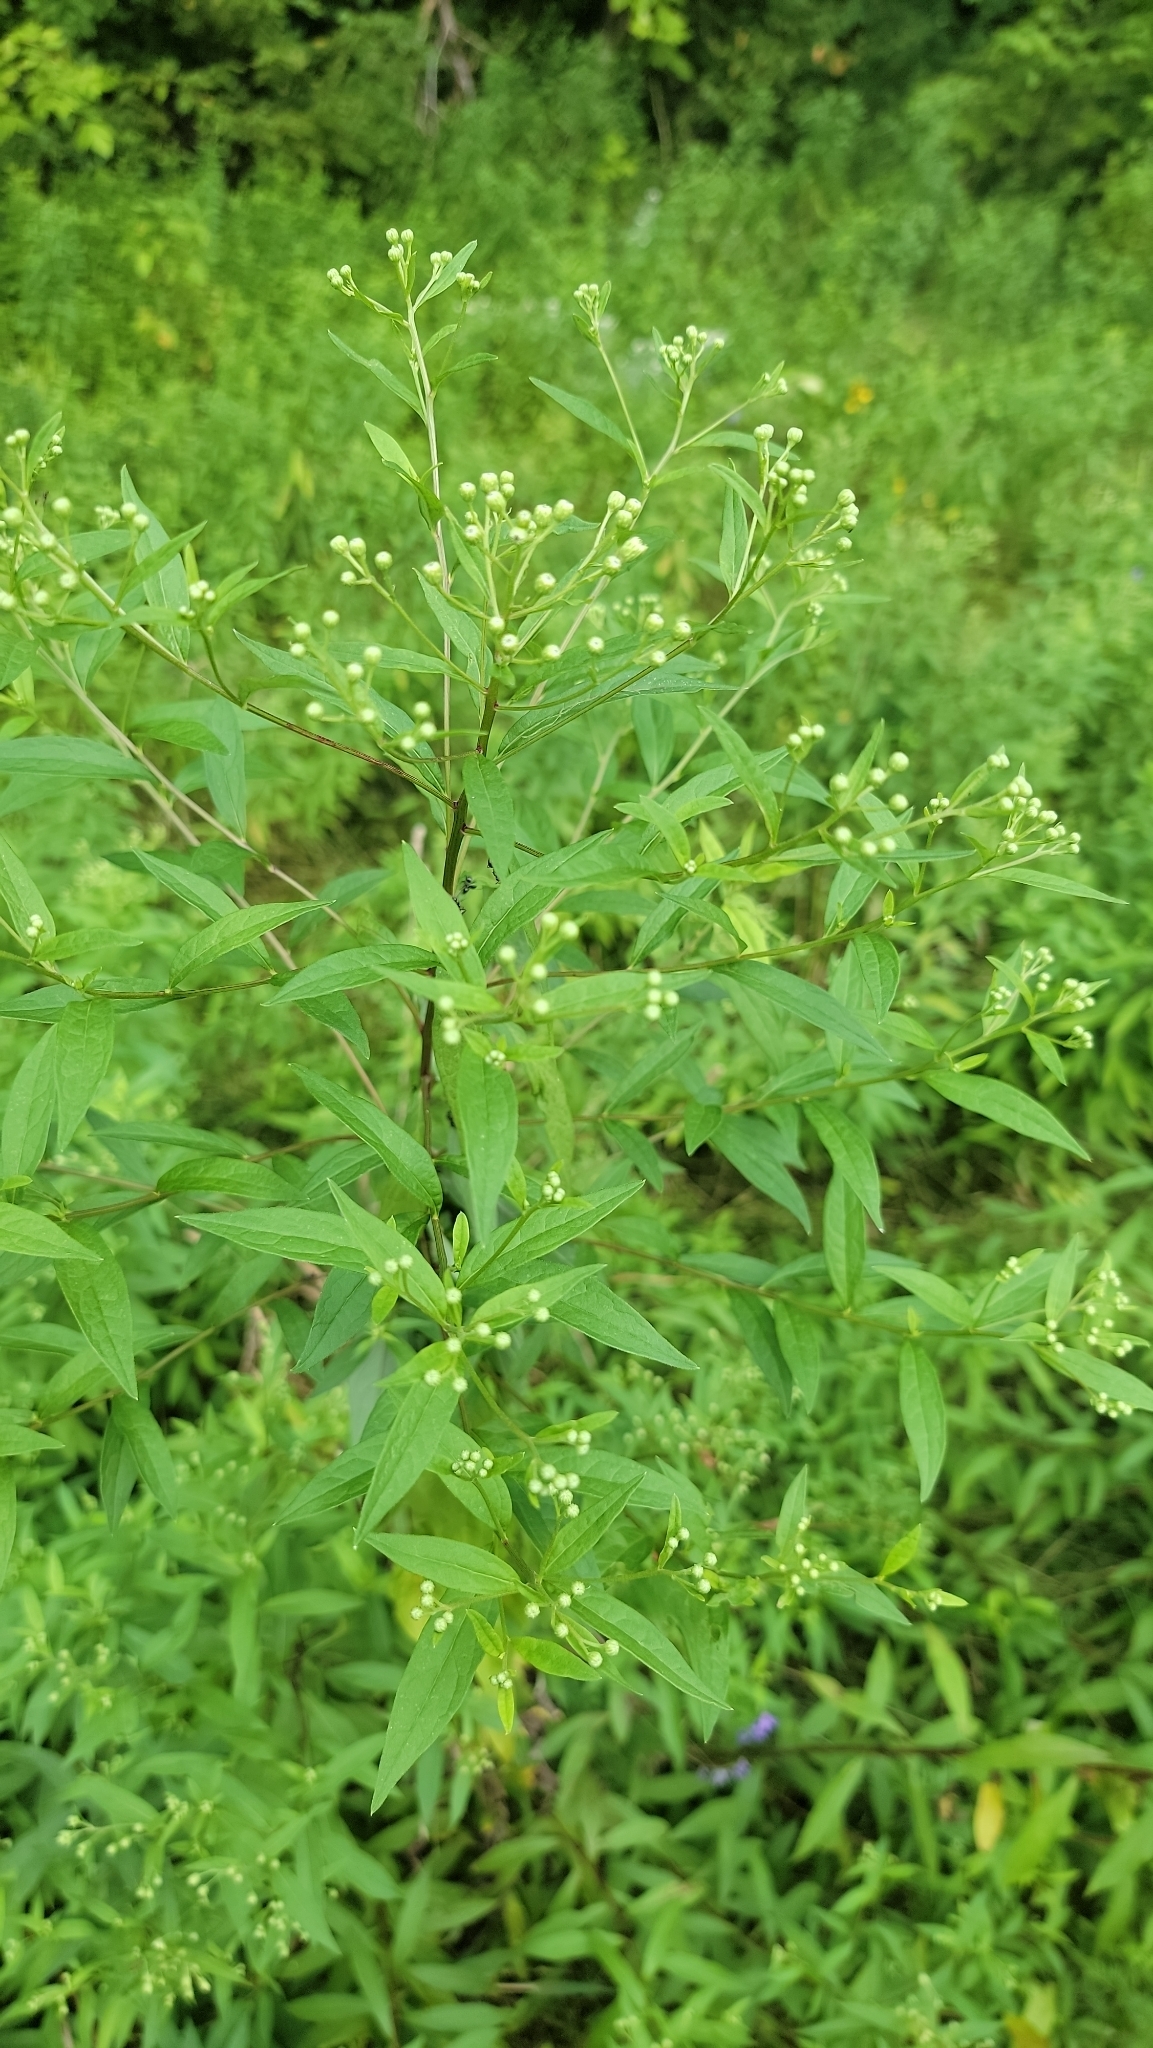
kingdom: Plantae
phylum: Tracheophyta
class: Magnoliopsida
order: Asterales
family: Asteraceae
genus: Doellingeria
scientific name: Doellingeria umbellata
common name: Flat-top white aster
